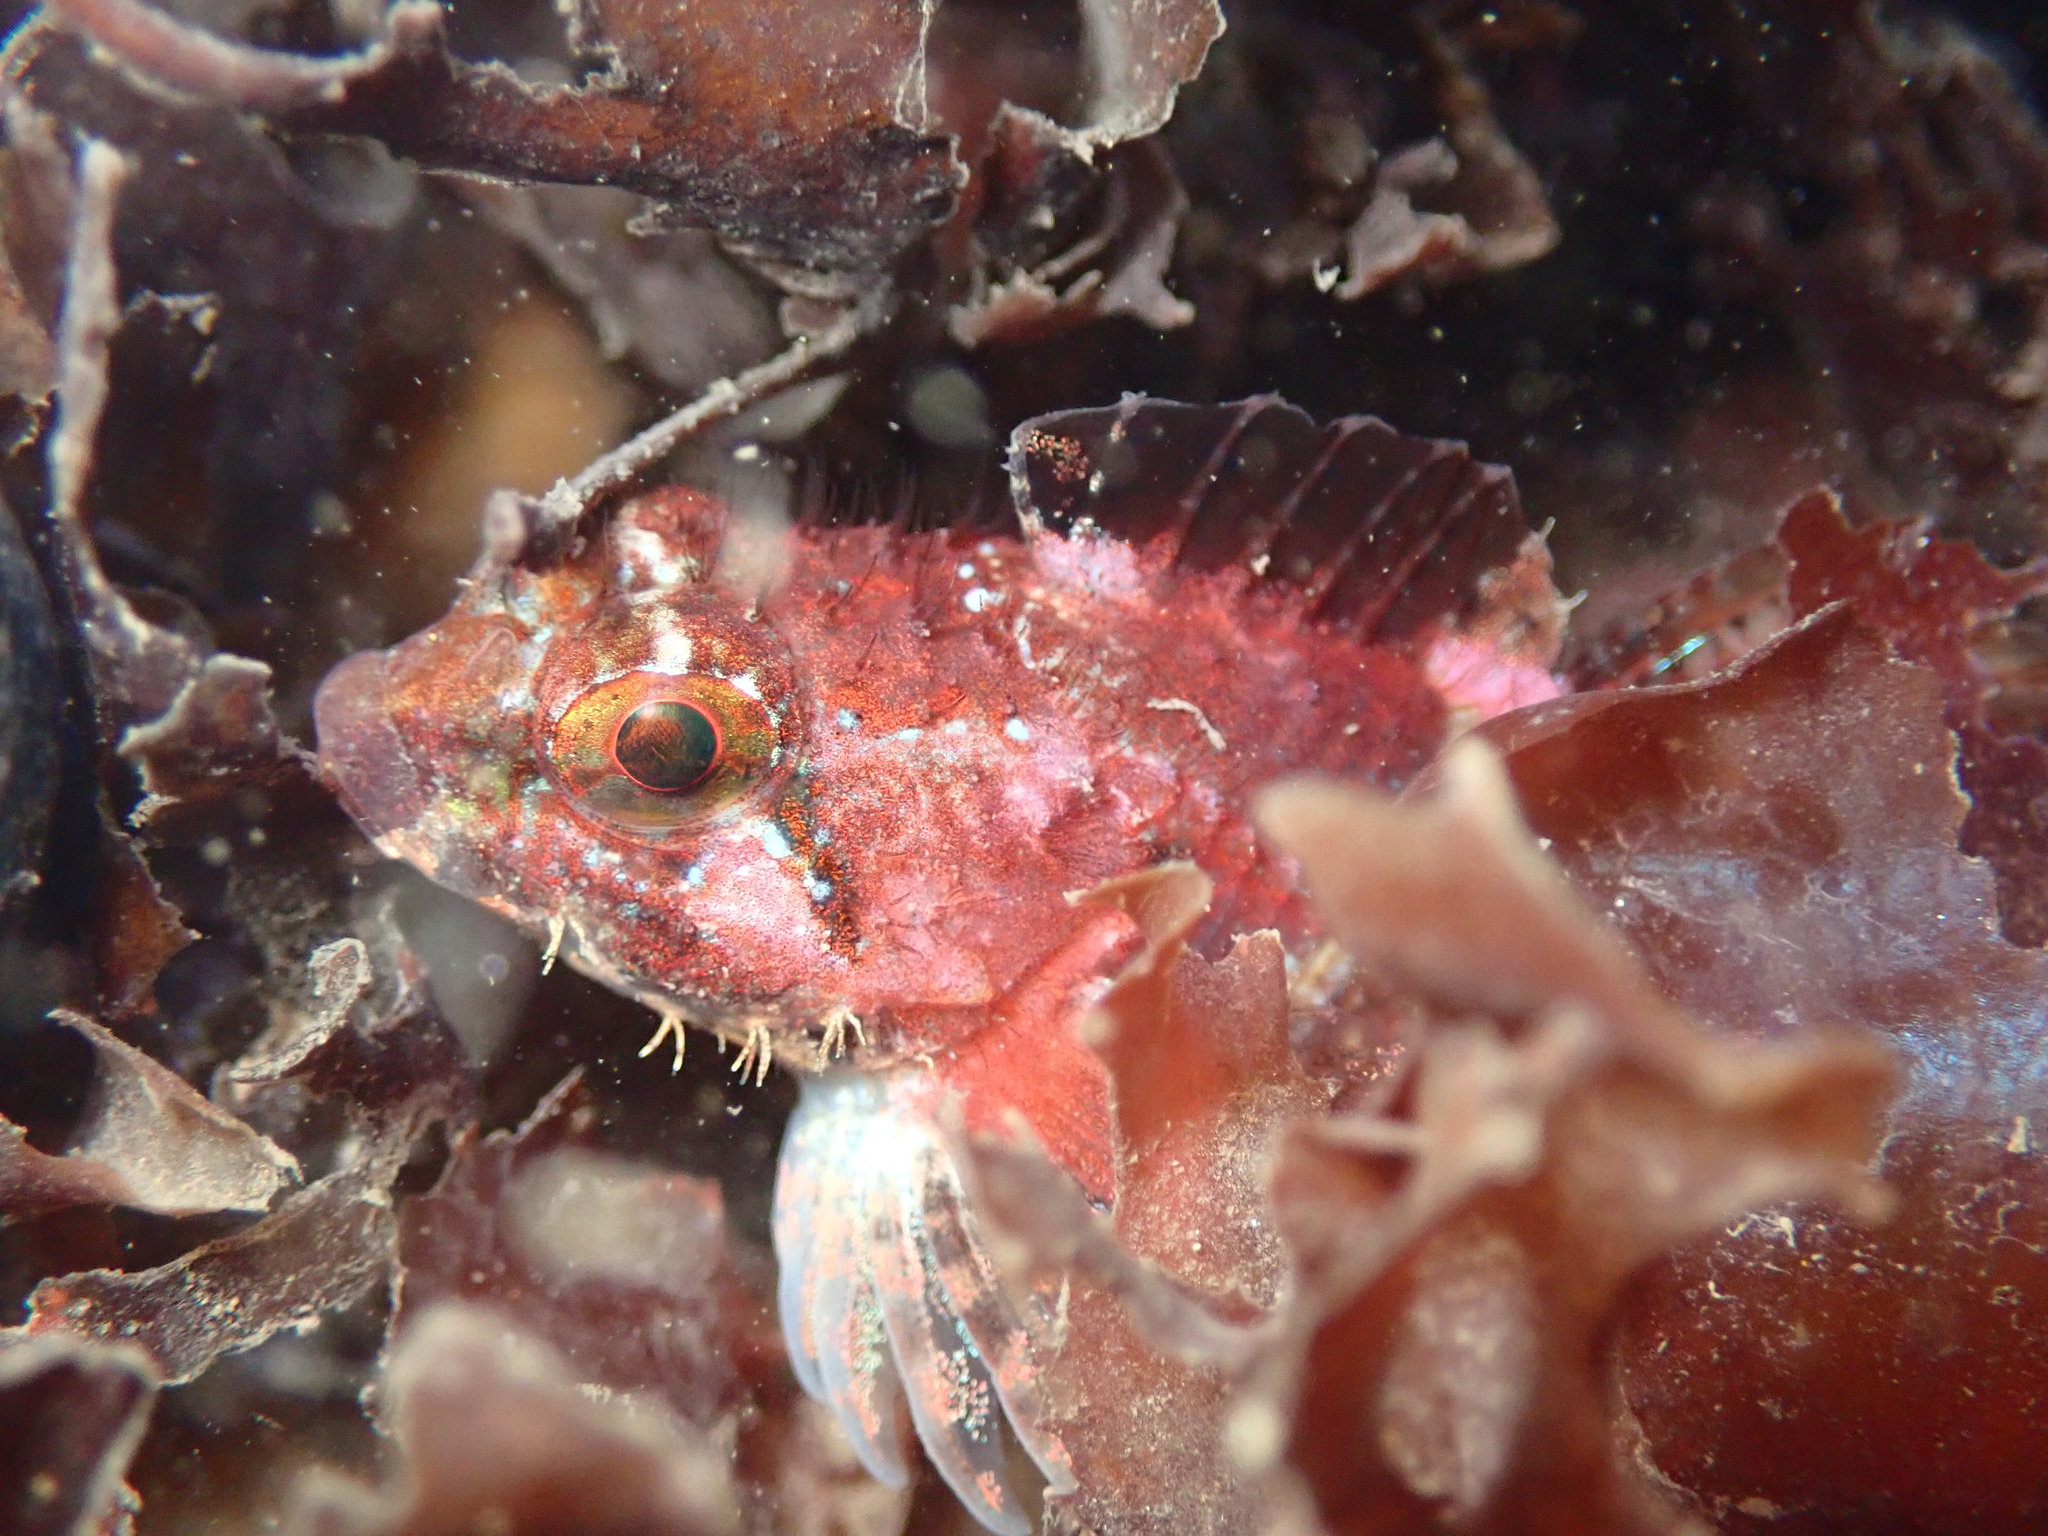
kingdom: Animalia
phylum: Chordata
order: Scorpaeniformes
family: Cottidae
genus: Oligocottus
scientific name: Oligocottus rubellio
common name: Rosy sculpin
